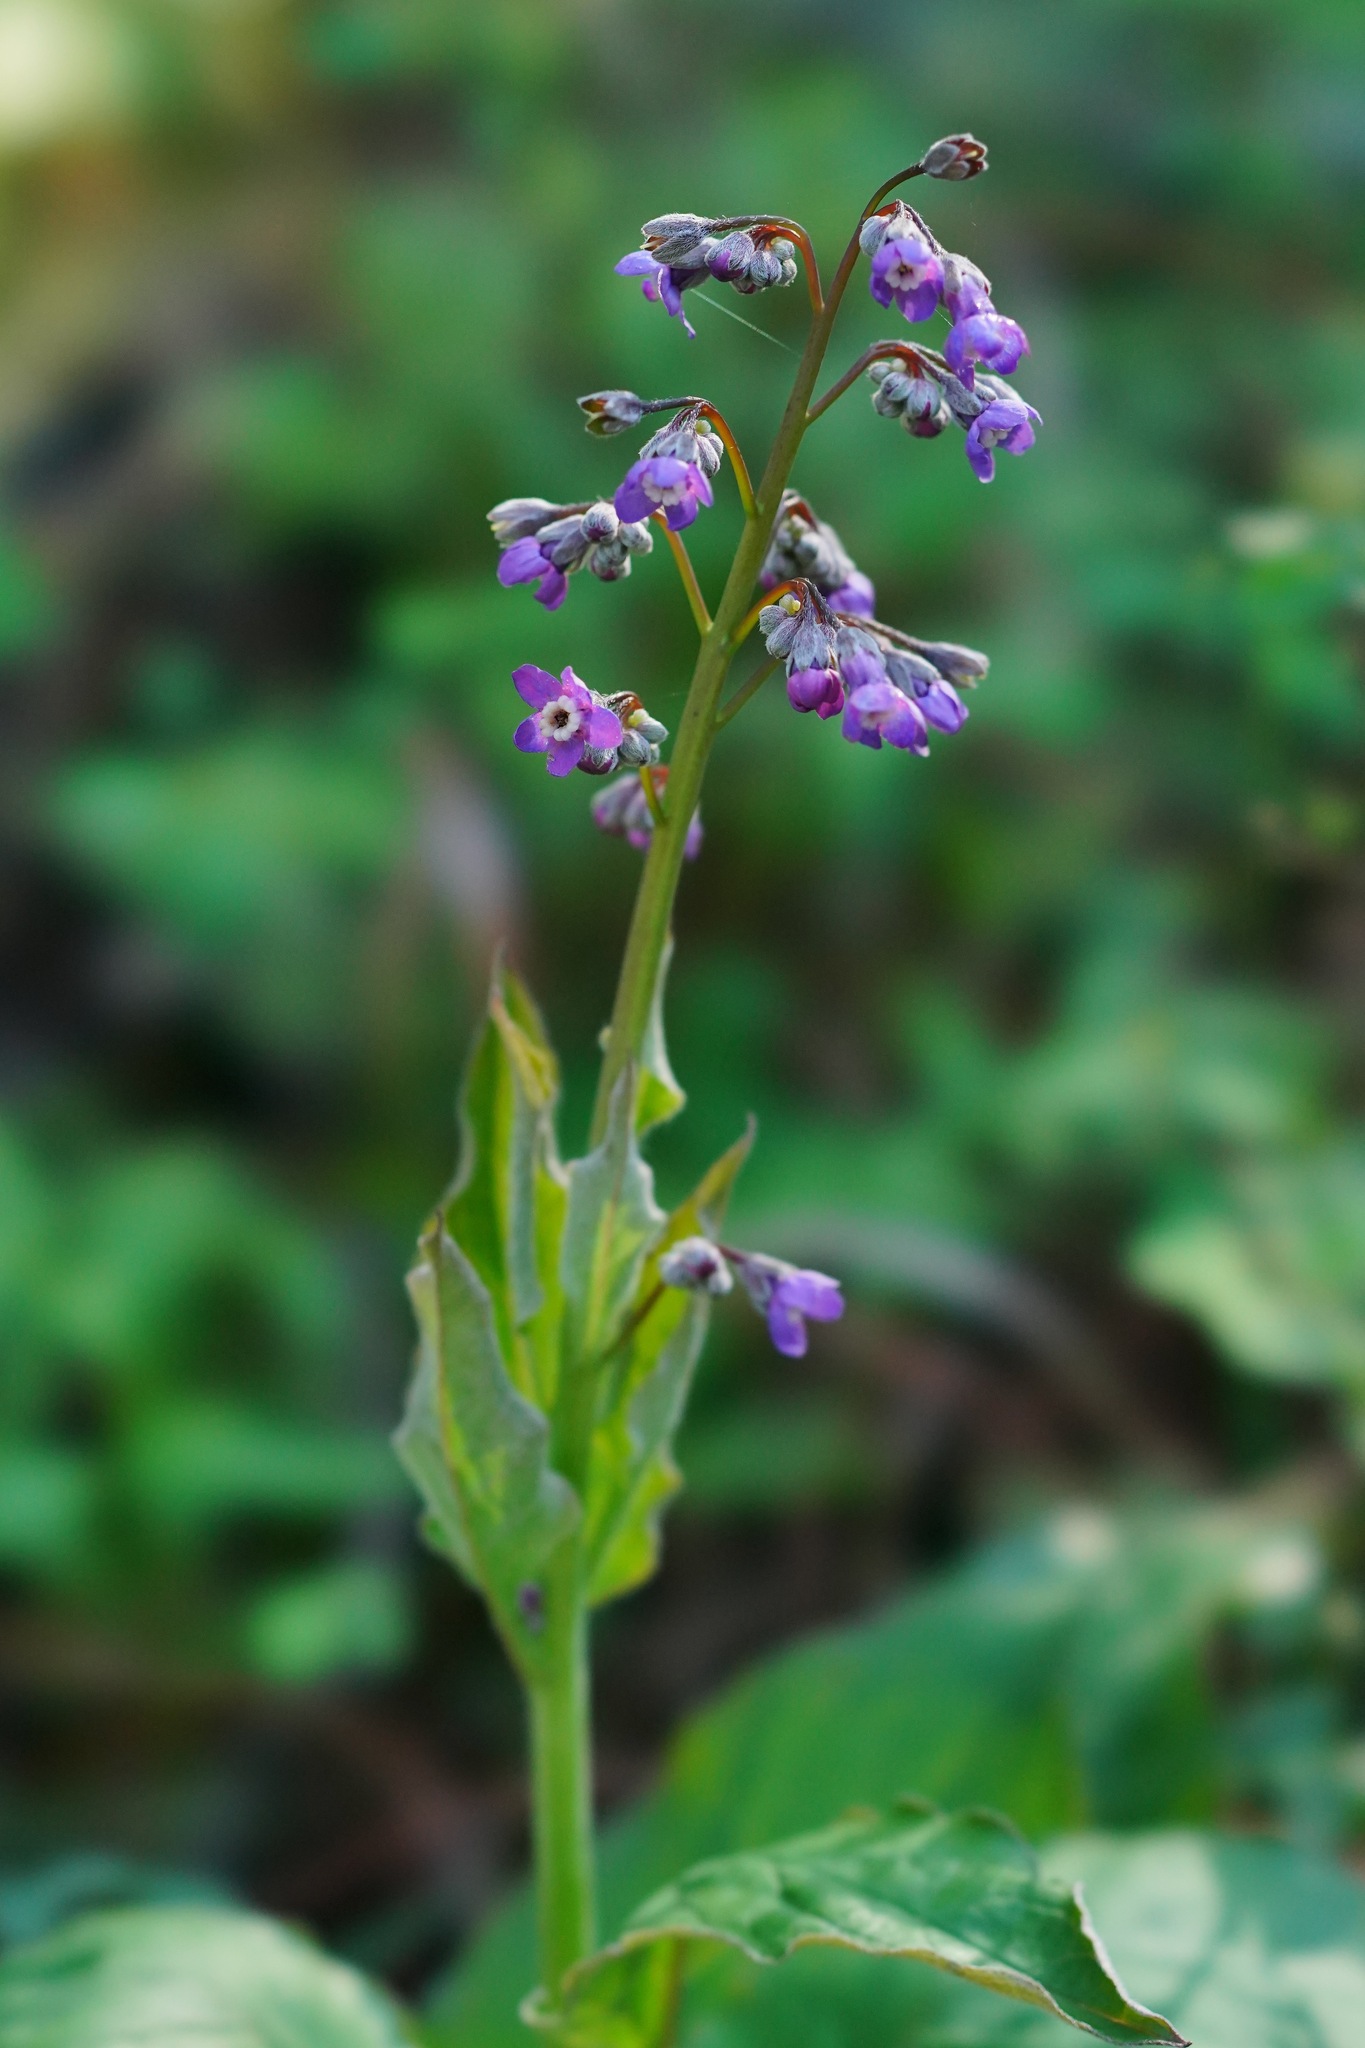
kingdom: Plantae
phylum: Tracheophyta
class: Magnoliopsida
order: Boraginales
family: Boraginaceae
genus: Adelinia
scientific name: Adelinia grande
